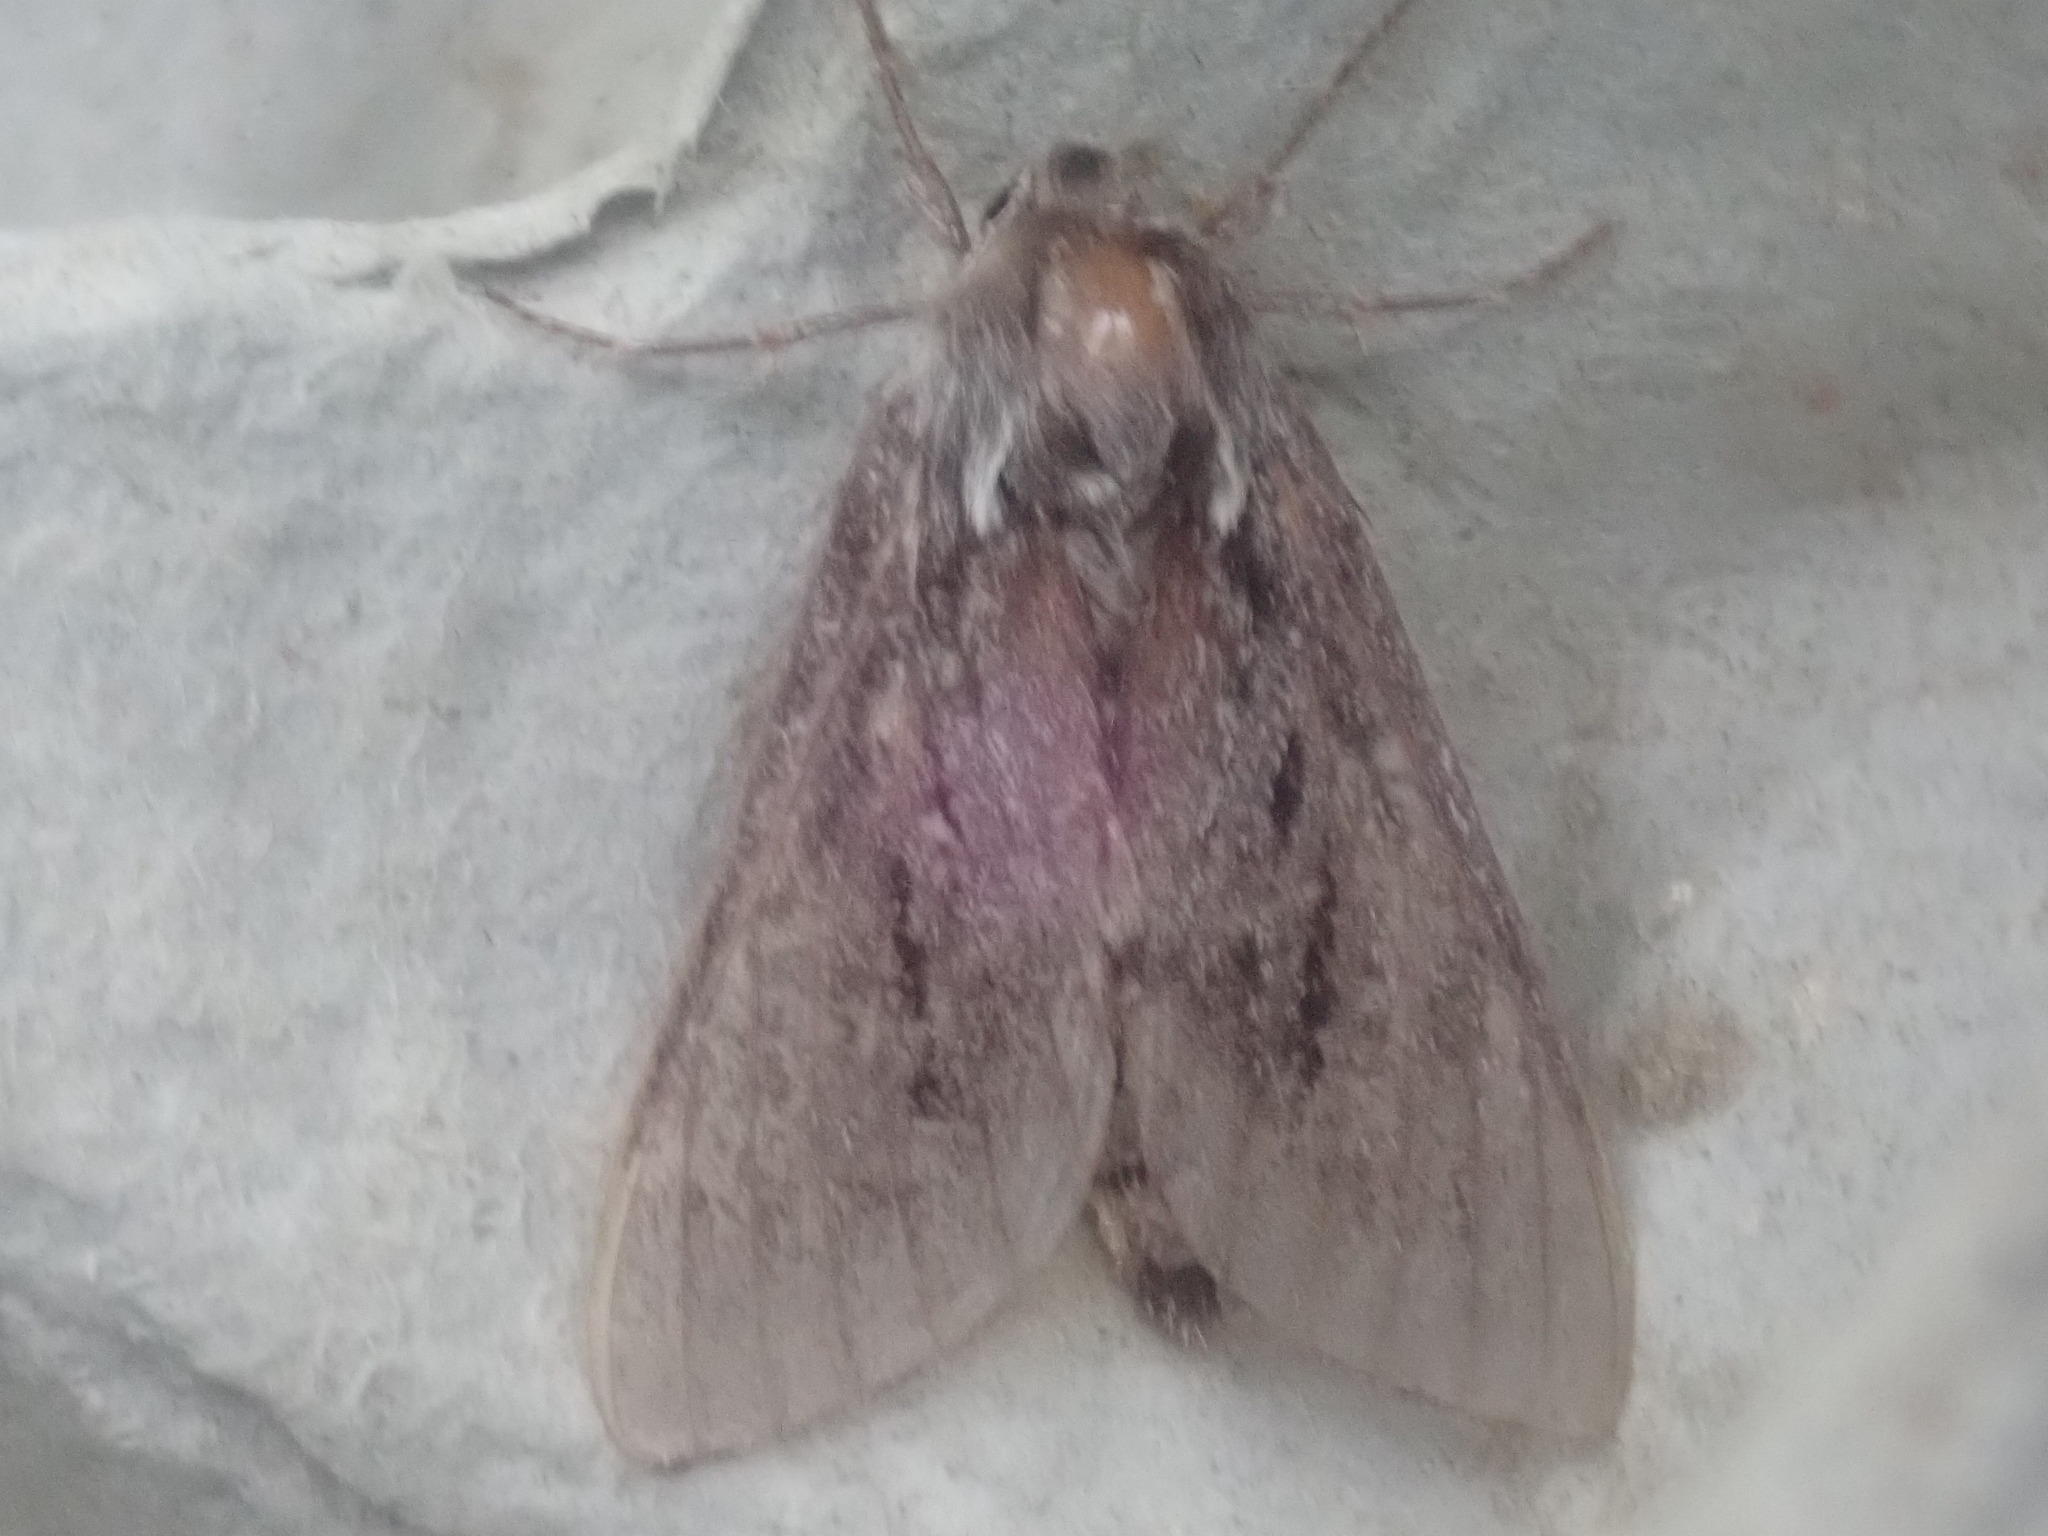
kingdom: Animalia
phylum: Arthropoda
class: Insecta
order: Lepidoptera
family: Sphingidae
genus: Lapara
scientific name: Lapara bombycoides
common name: Northern pine sphinx
